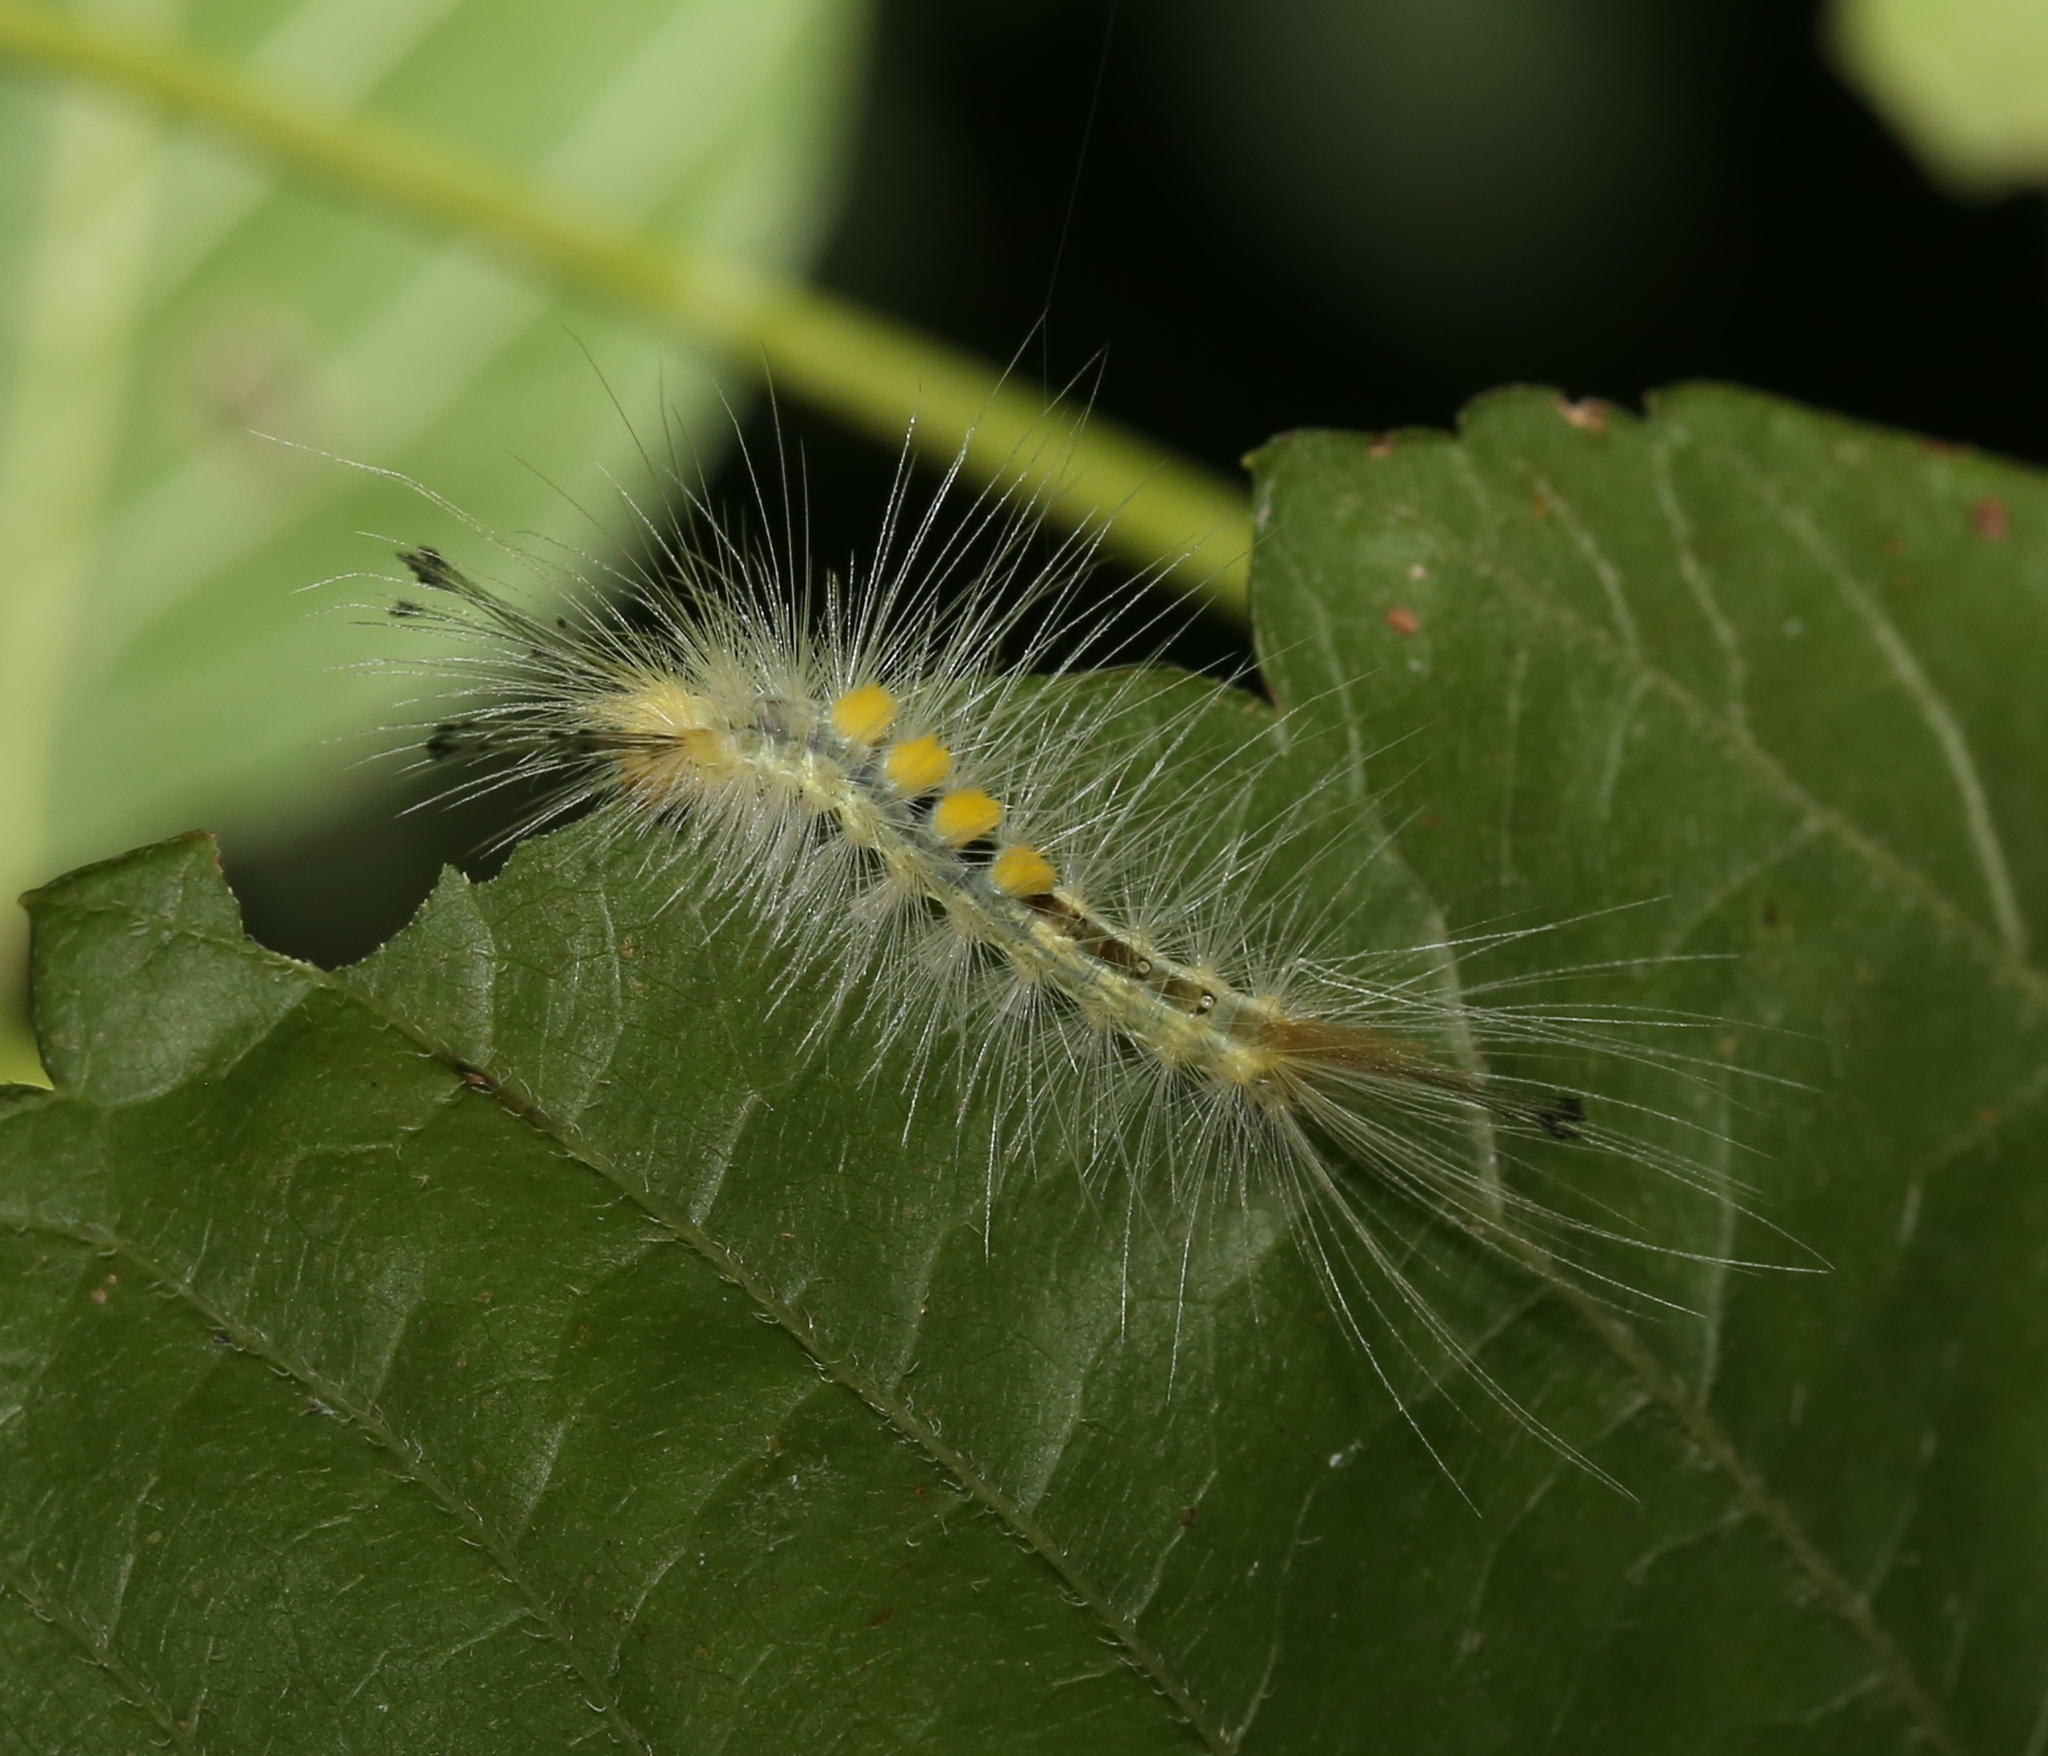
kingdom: Animalia
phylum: Arthropoda
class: Insecta
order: Lepidoptera
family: Erebidae
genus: Orgyia
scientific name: Orgyia definita
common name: Definite tussock moth
